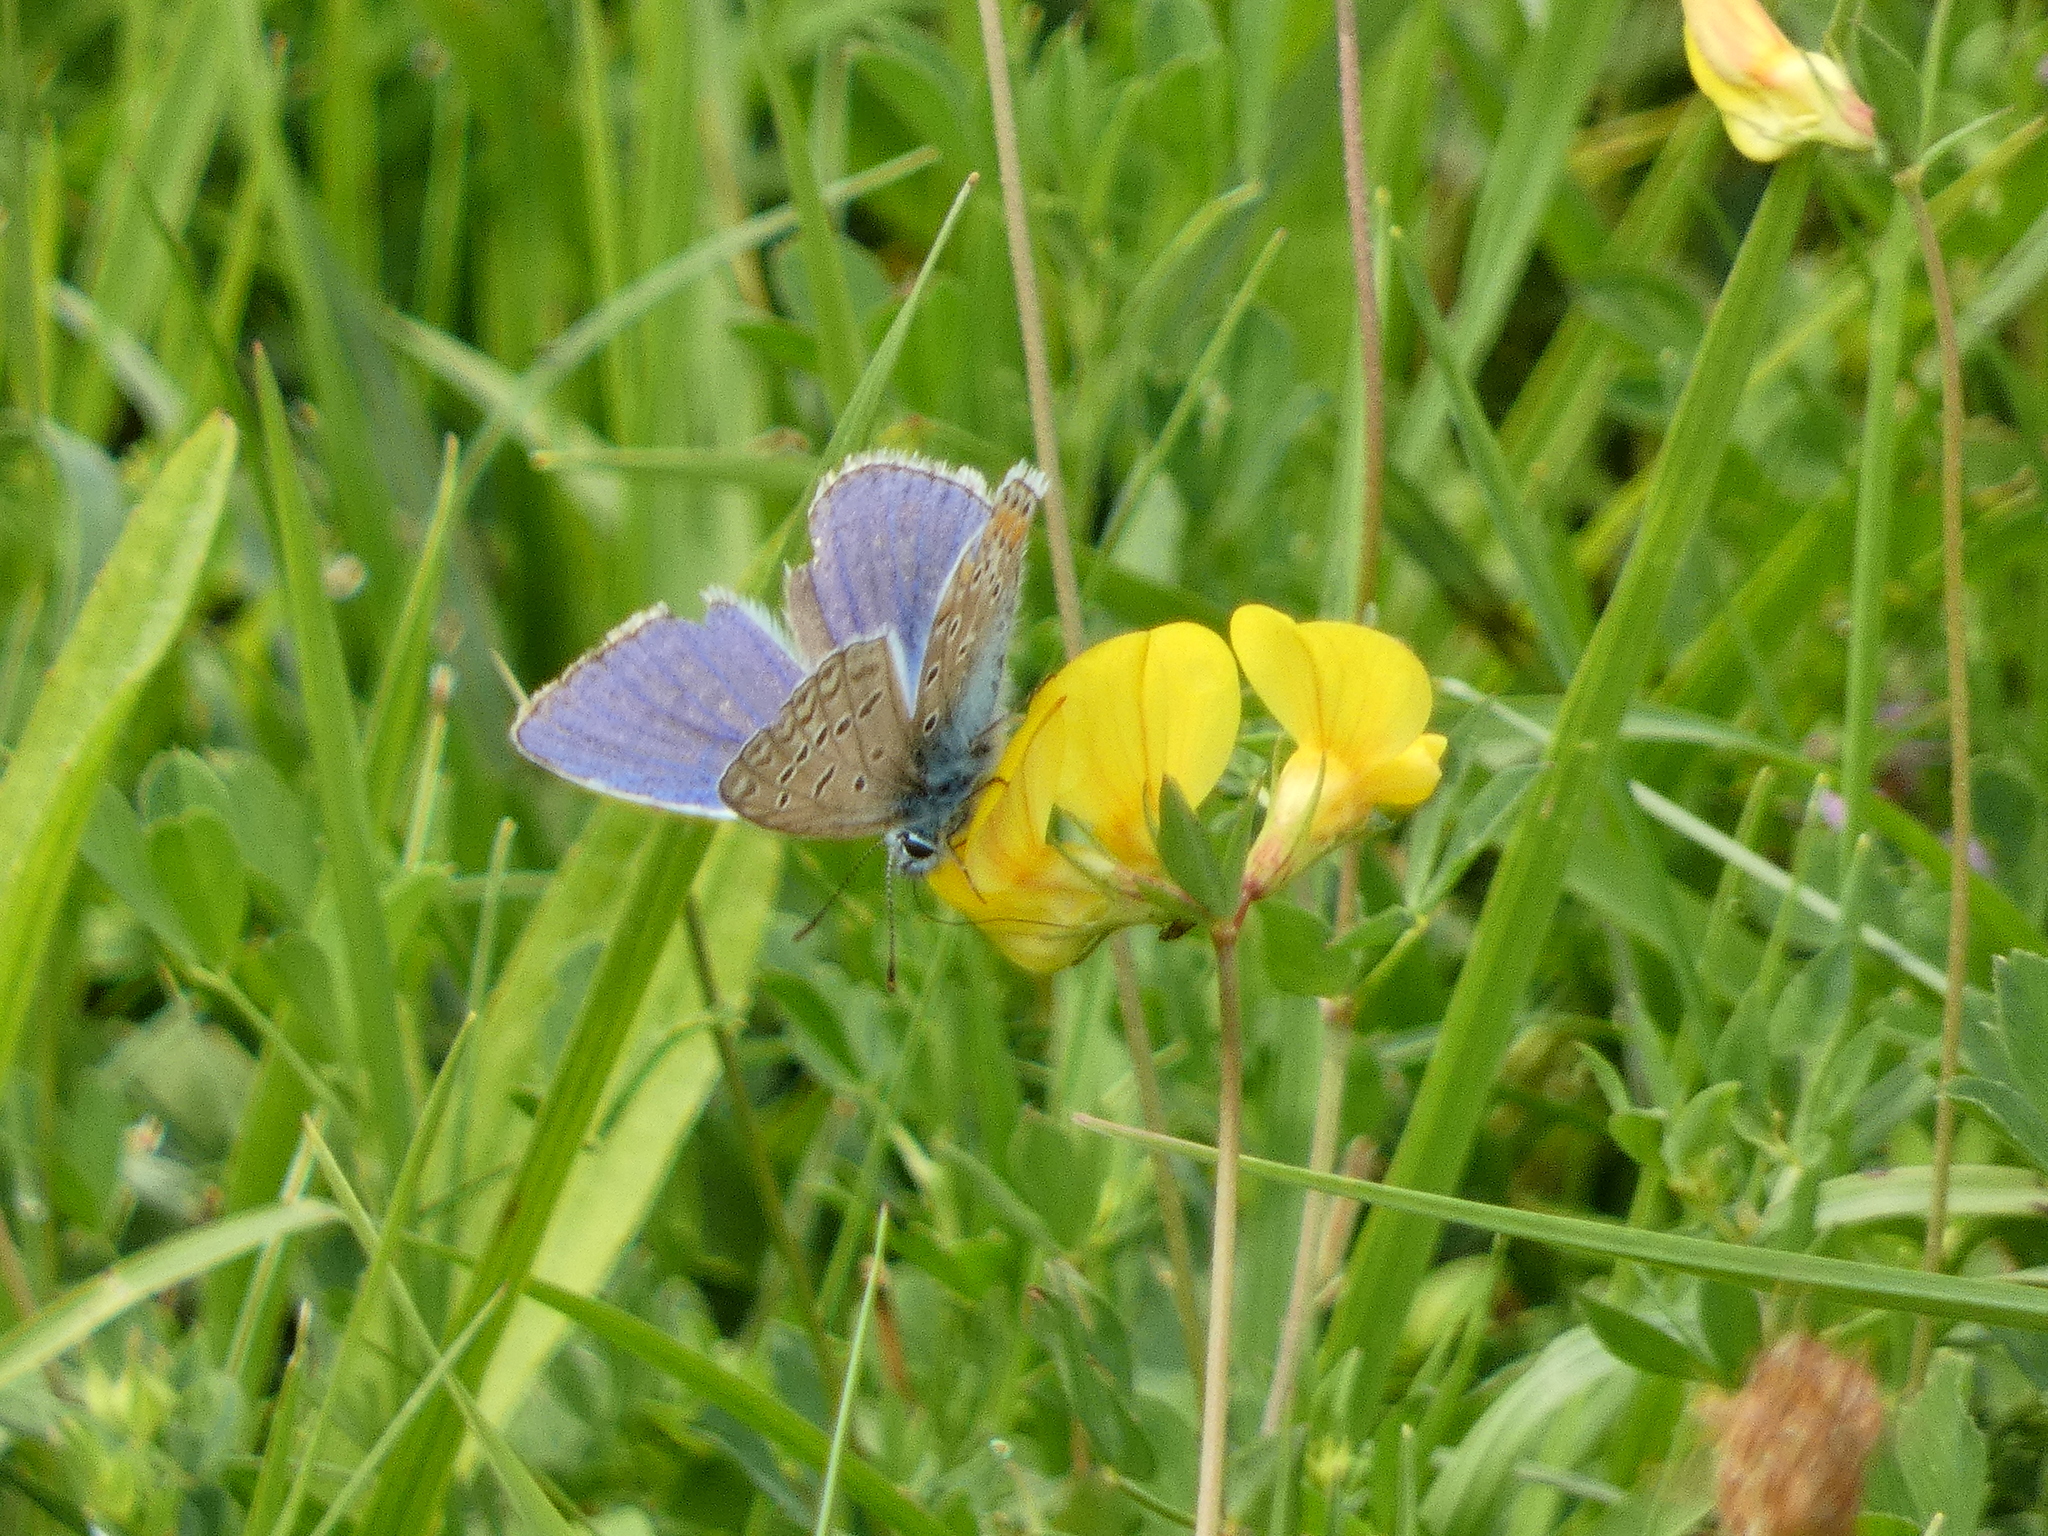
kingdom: Animalia
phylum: Arthropoda
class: Insecta
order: Lepidoptera
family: Lycaenidae
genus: Polyommatus
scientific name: Polyommatus icarus
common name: Common blue
